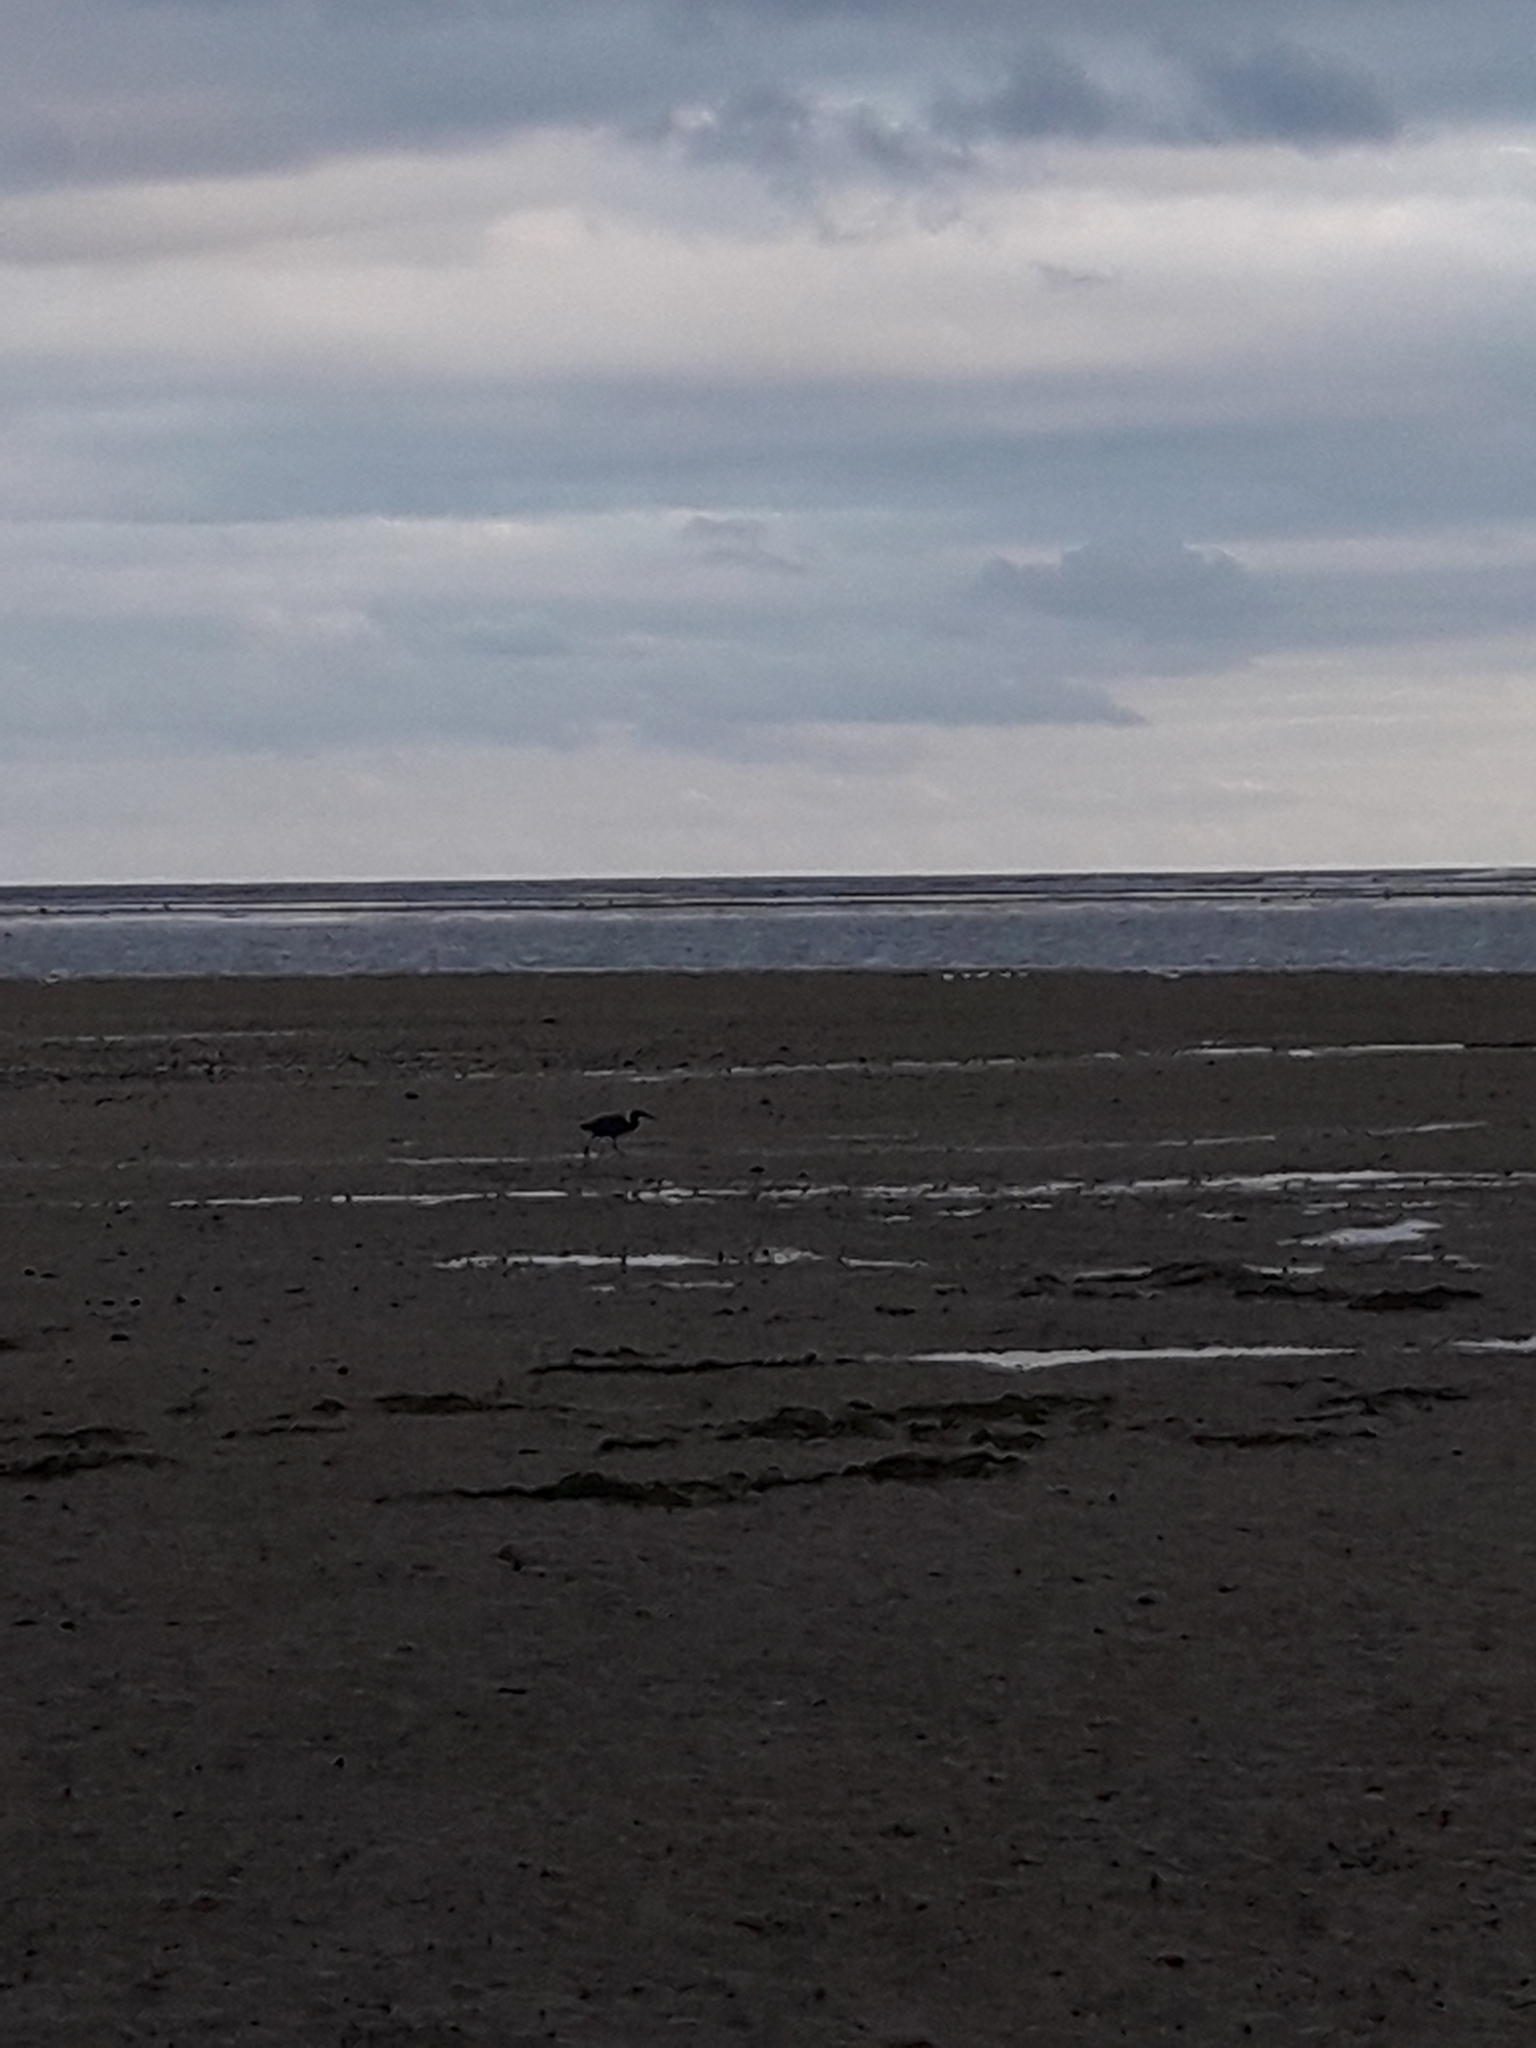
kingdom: Animalia
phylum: Chordata
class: Aves
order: Pelecaniformes
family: Ardeidae
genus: Egretta
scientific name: Egretta sacra
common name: Pacific reef heron
